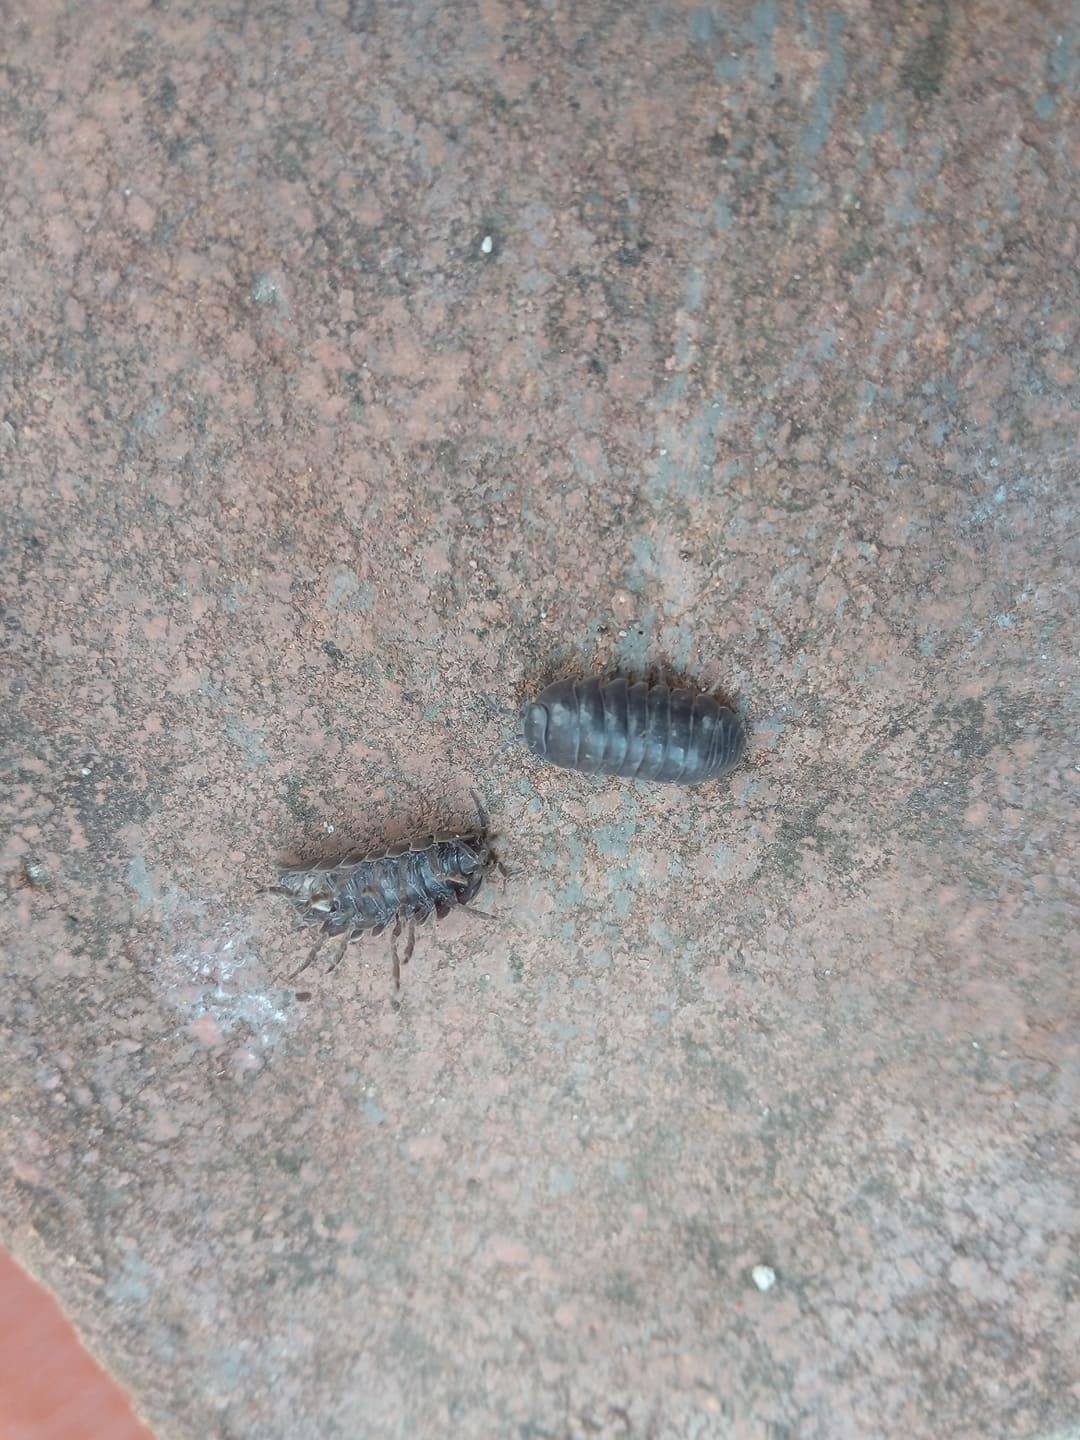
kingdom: Animalia
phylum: Arthropoda
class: Malacostraca
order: Isopoda
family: Armadillidiidae
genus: Armadillidium
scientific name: Armadillidium vulgare
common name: Common pill woodlouse
